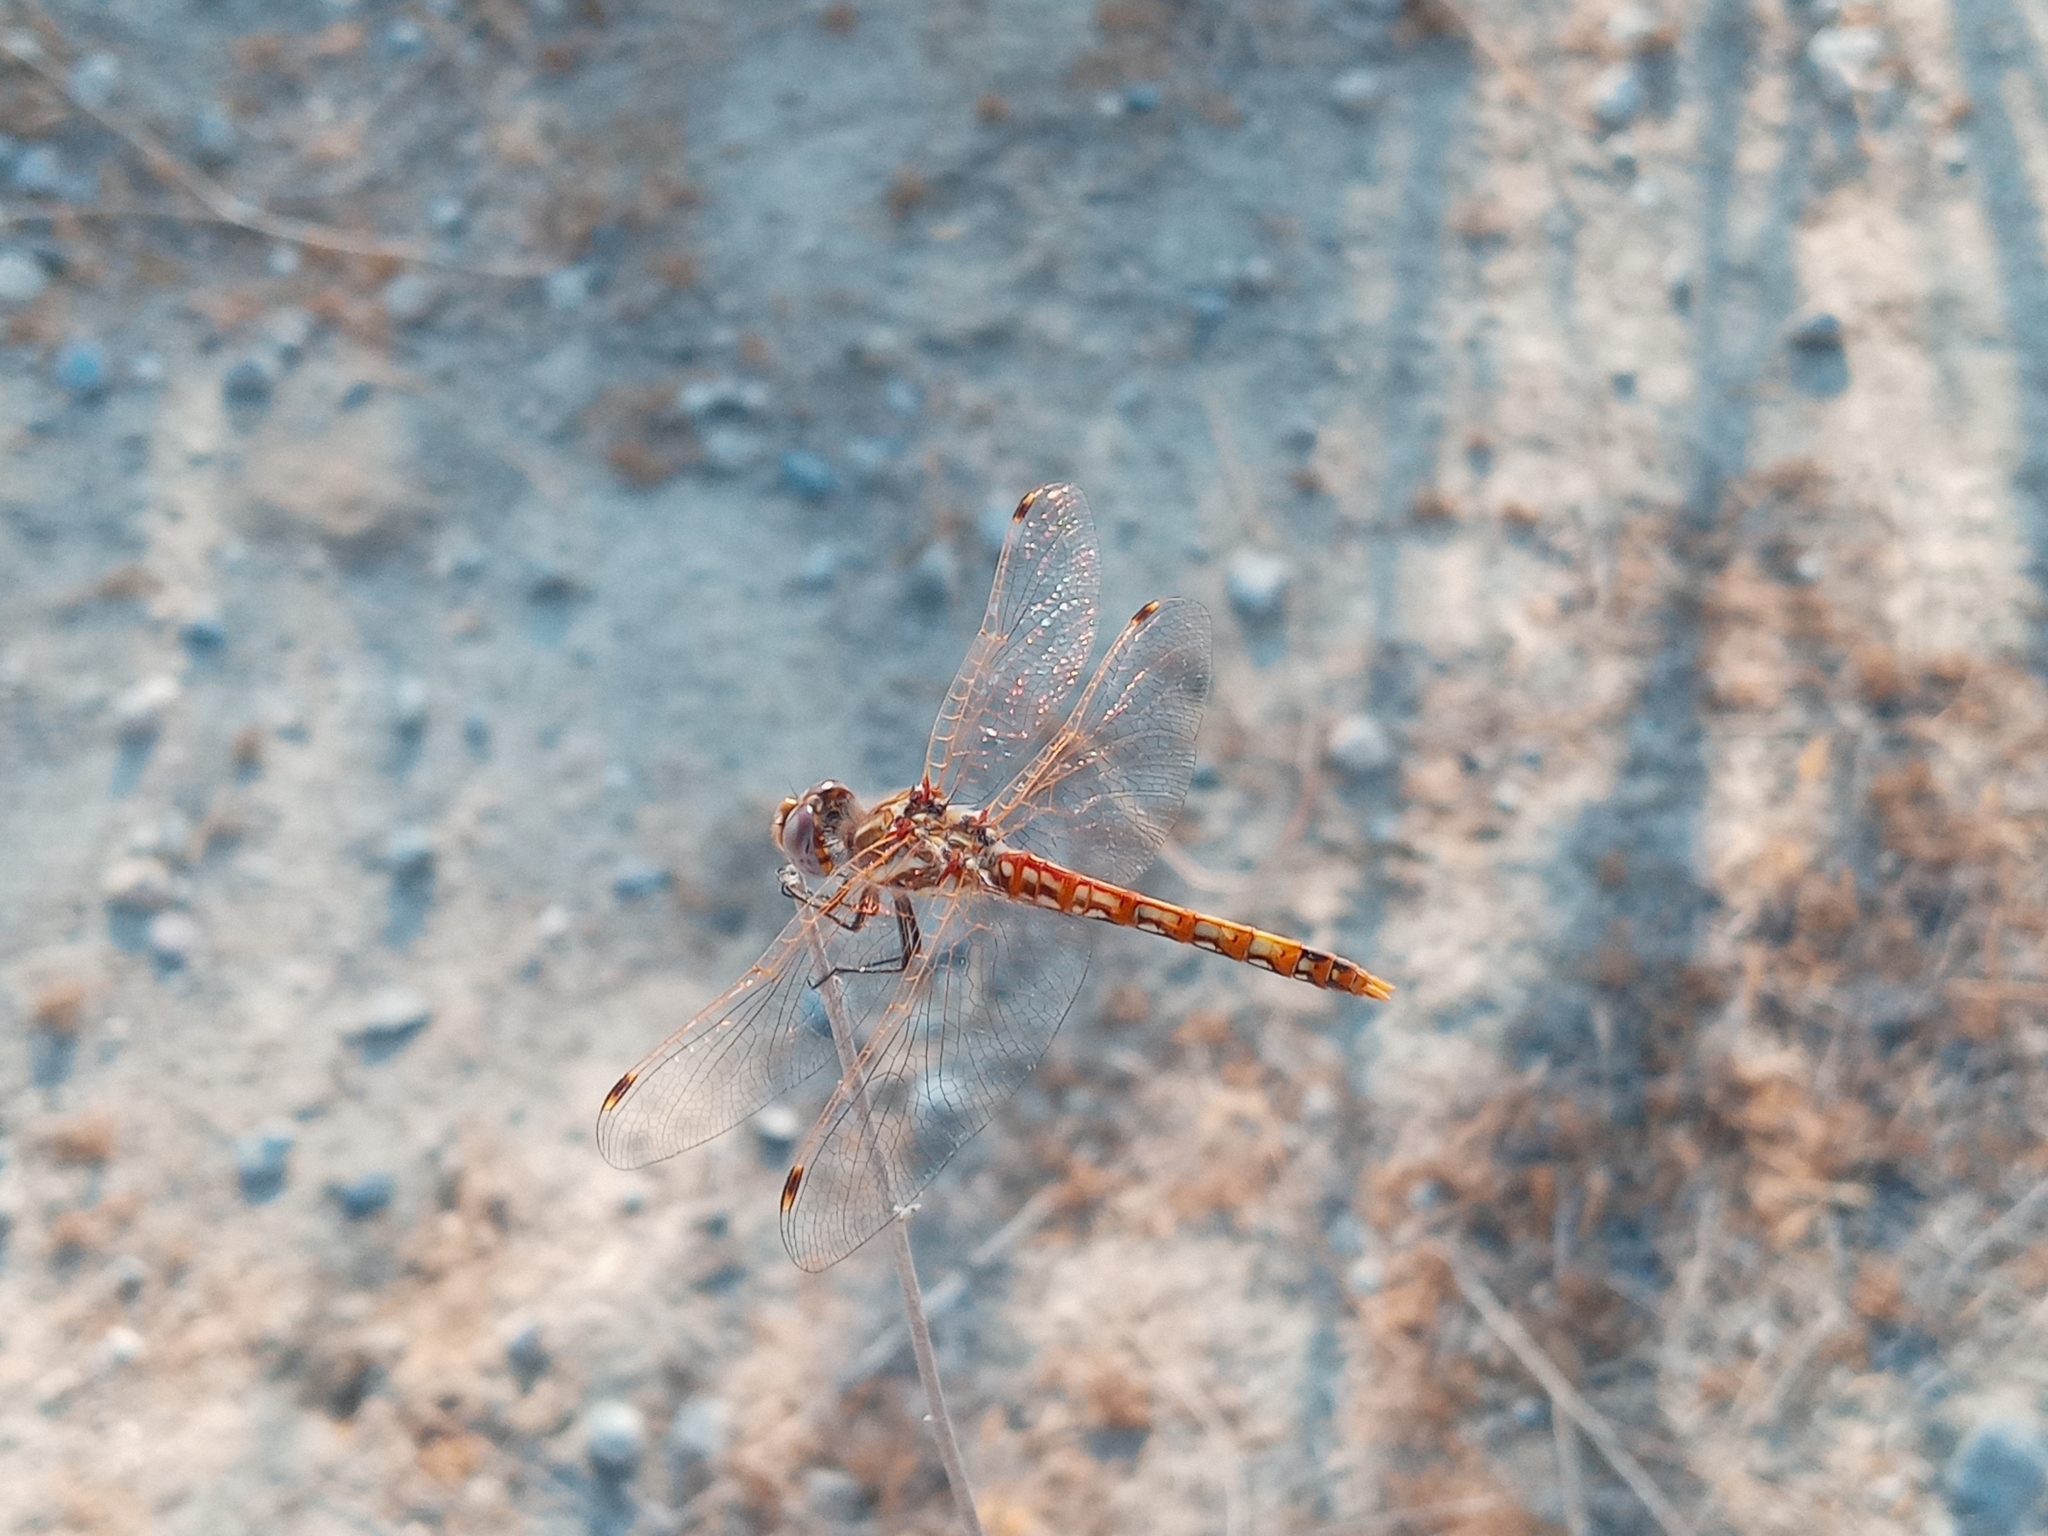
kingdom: Animalia
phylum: Arthropoda
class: Insecta
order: Odonata
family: Libellulidae
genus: Sympetrum
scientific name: Sympetrum corruptum
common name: Variegated meadowhawk
